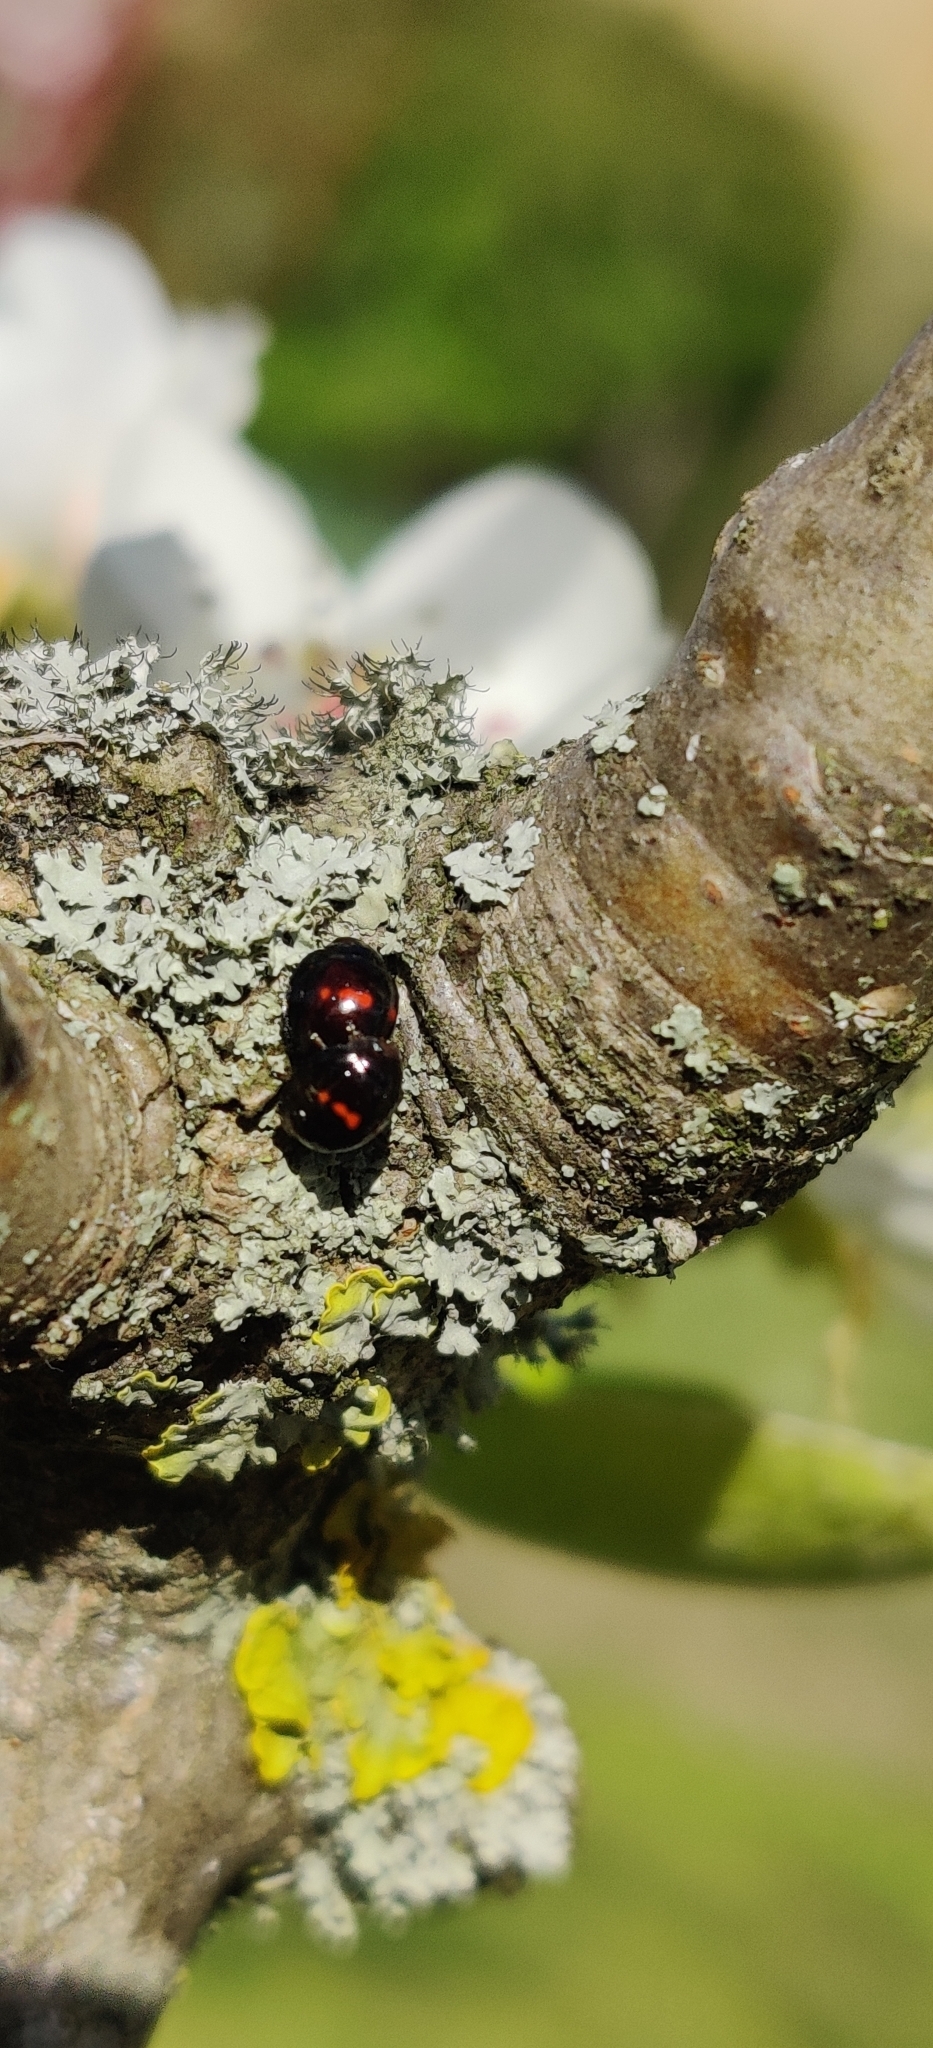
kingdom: Animalia
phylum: Arthropoda
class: Insecta
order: Coleoptera
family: Coccinellidae
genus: Chilocorus
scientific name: Chilocorus bipustulatus
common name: Heather ladybird
